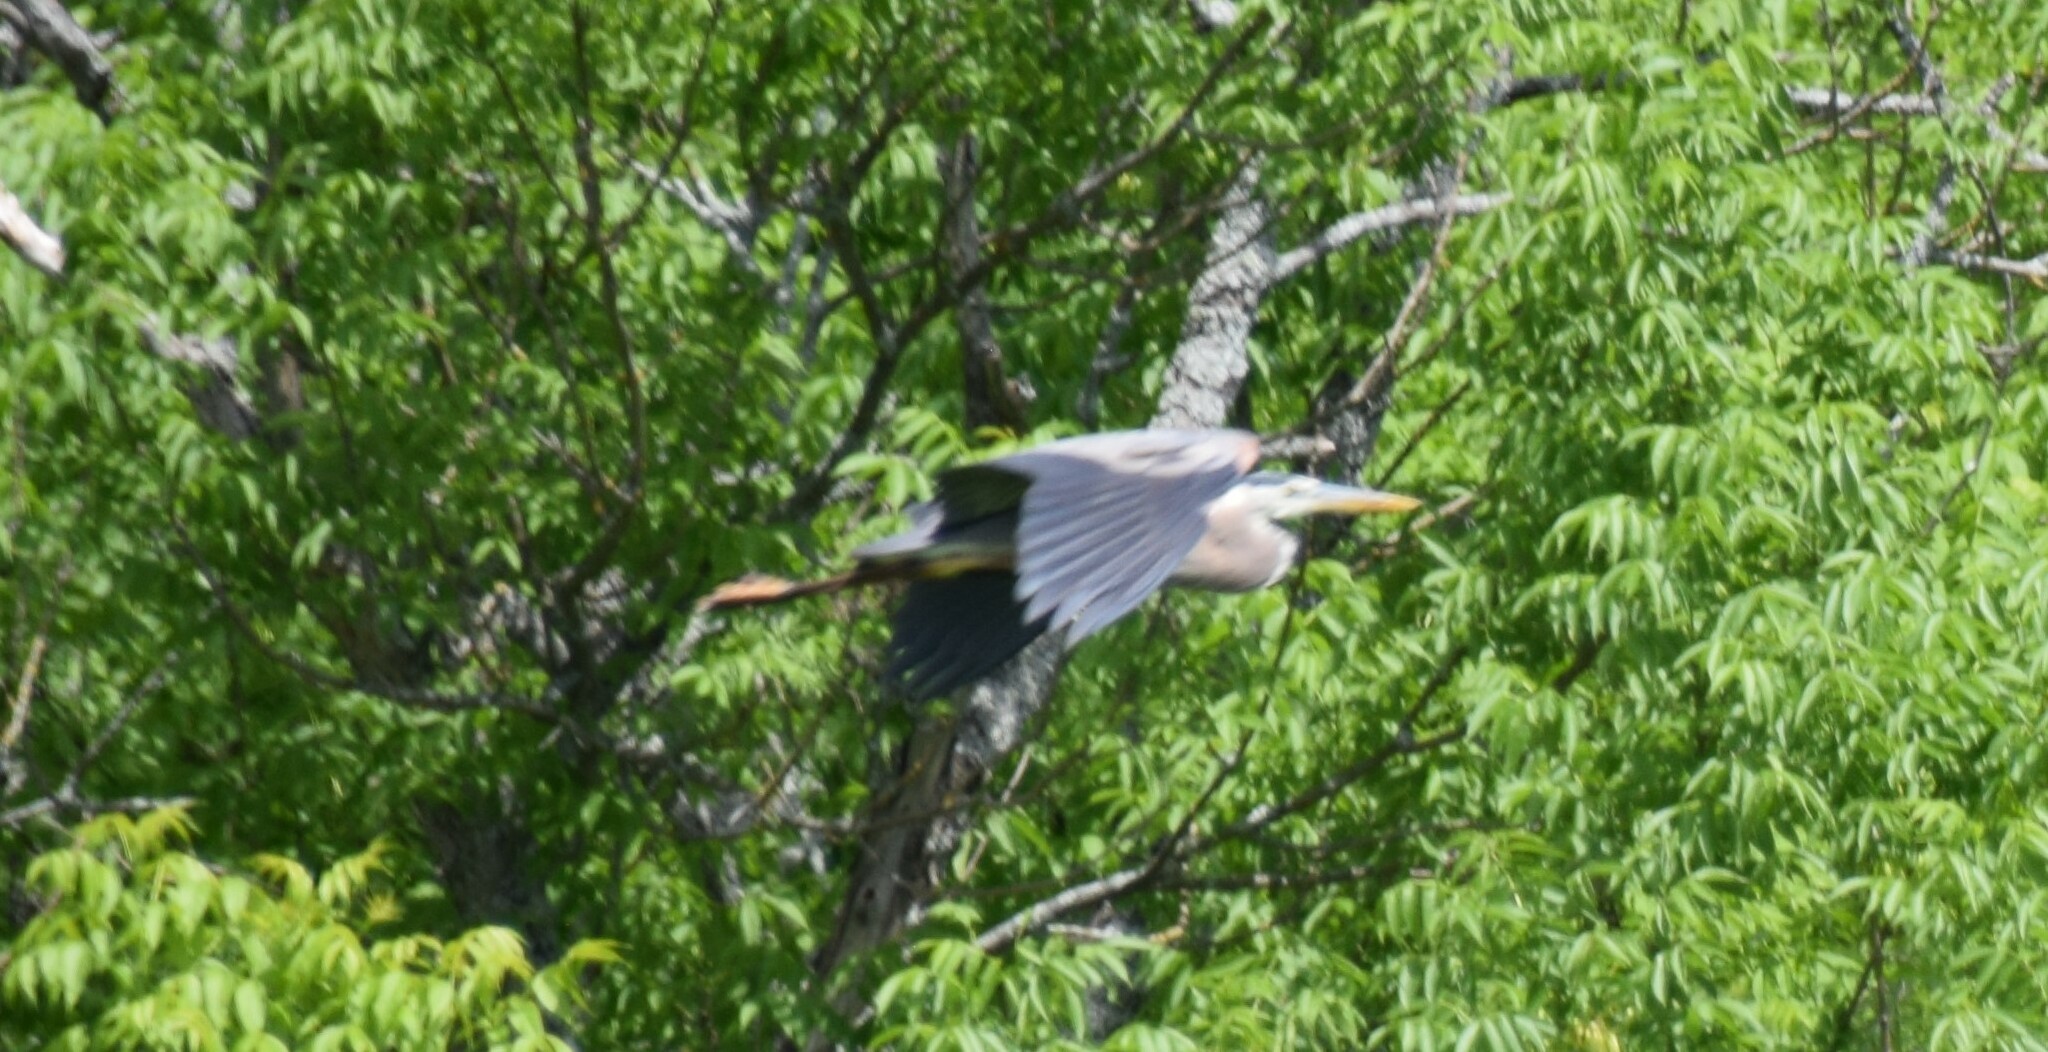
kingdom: Animalia
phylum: Chordata
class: Aves
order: Pelecaniformes
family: Ardeidae
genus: Ardea
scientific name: Ardea herodias
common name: Great blue heron
